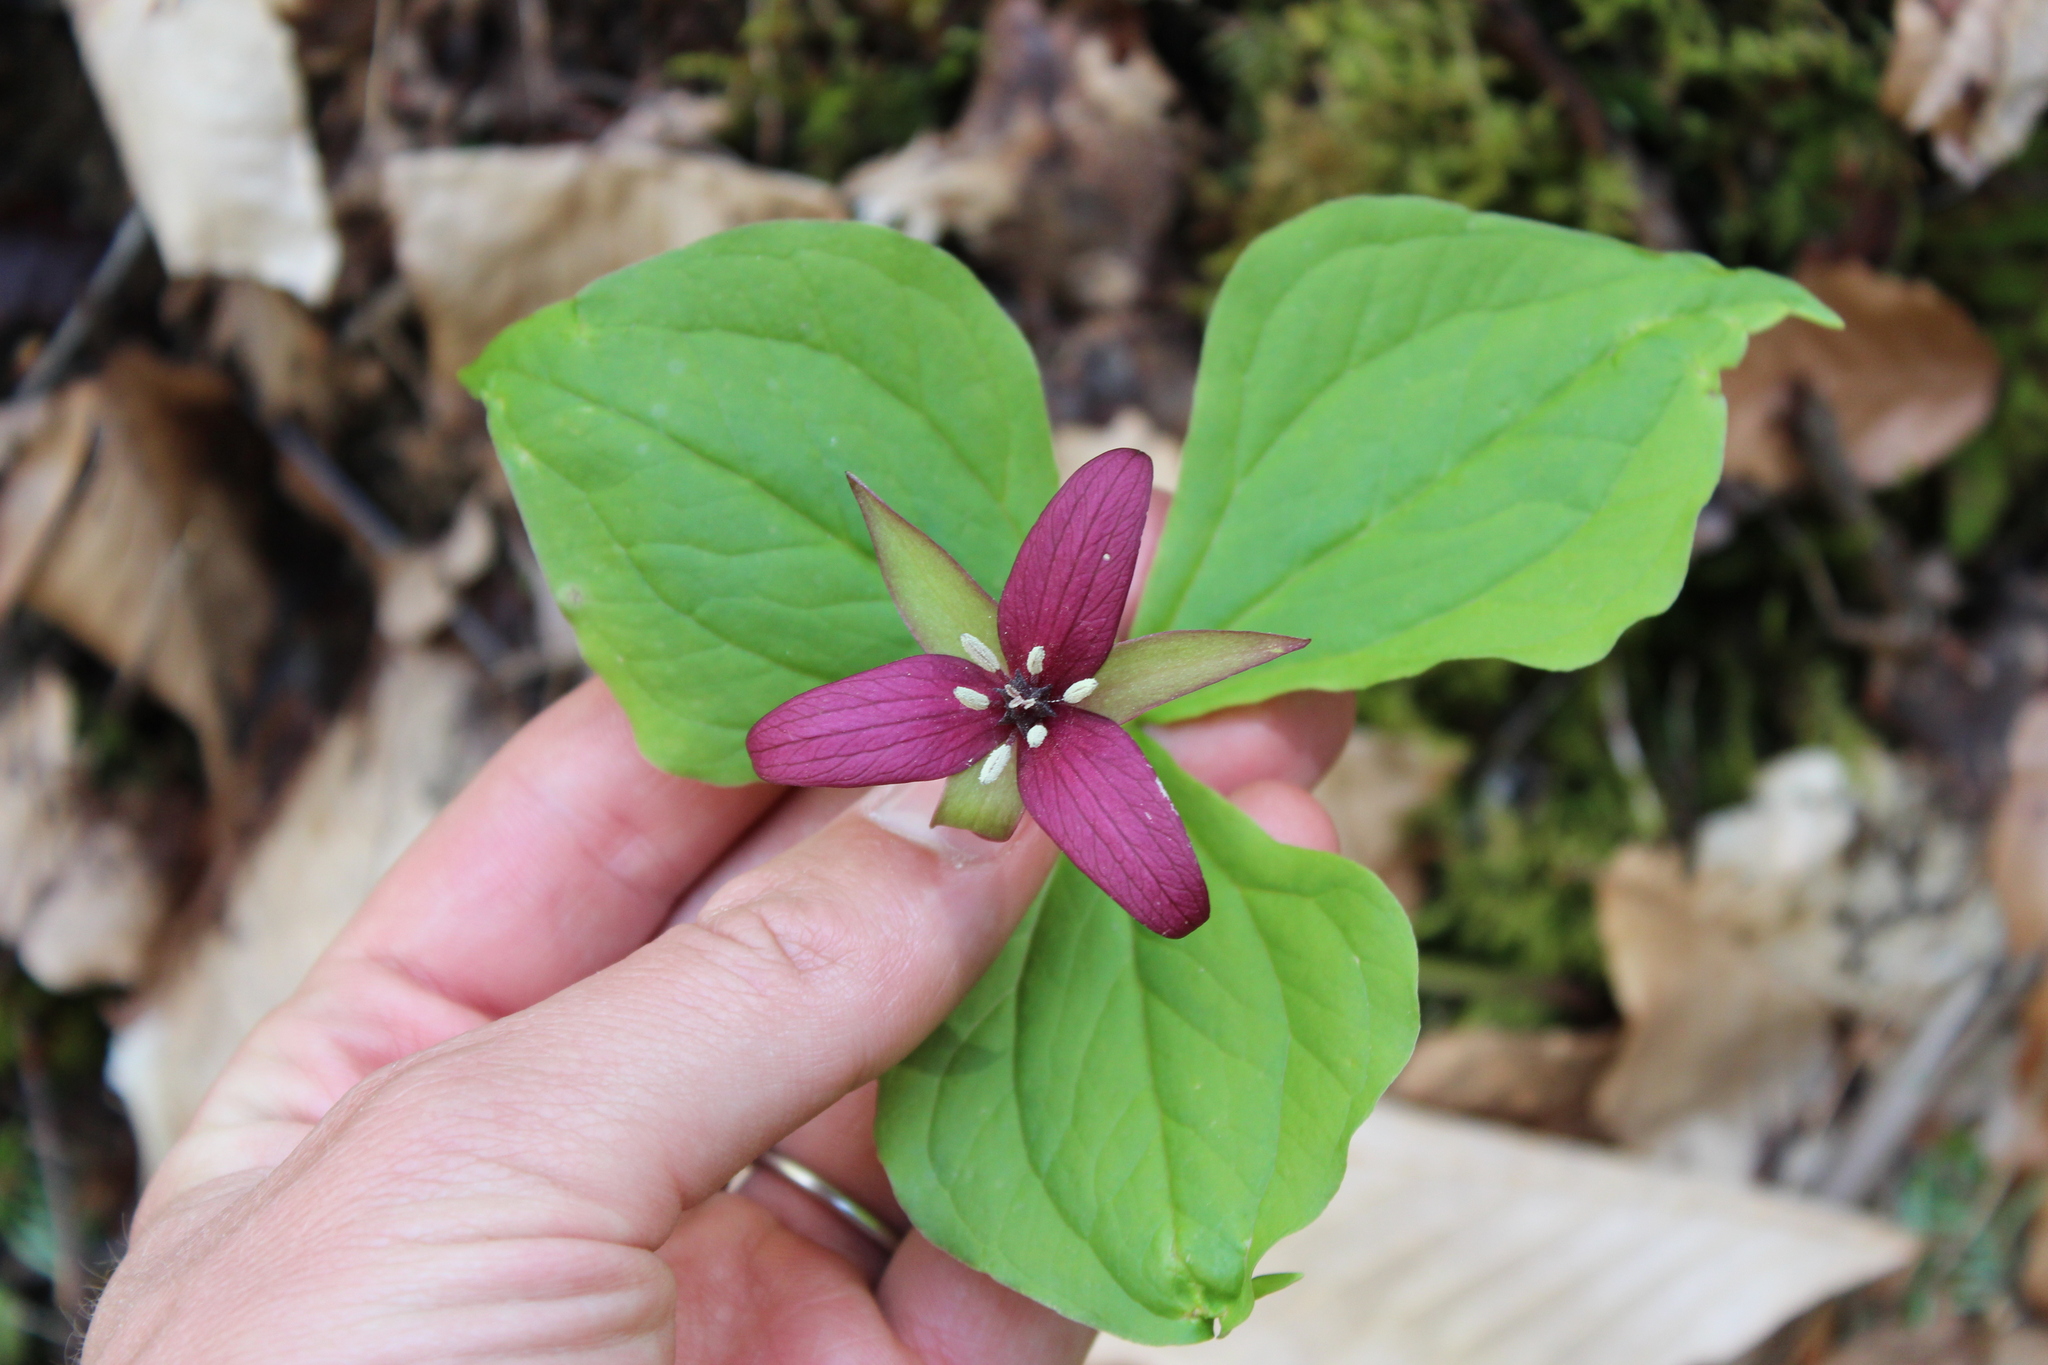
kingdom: Plantae
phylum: Tracheophyta
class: Liliopsida
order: Liliales
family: Melanthiaceae
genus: Trillium
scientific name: Trillium erectum
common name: Purple trillium
